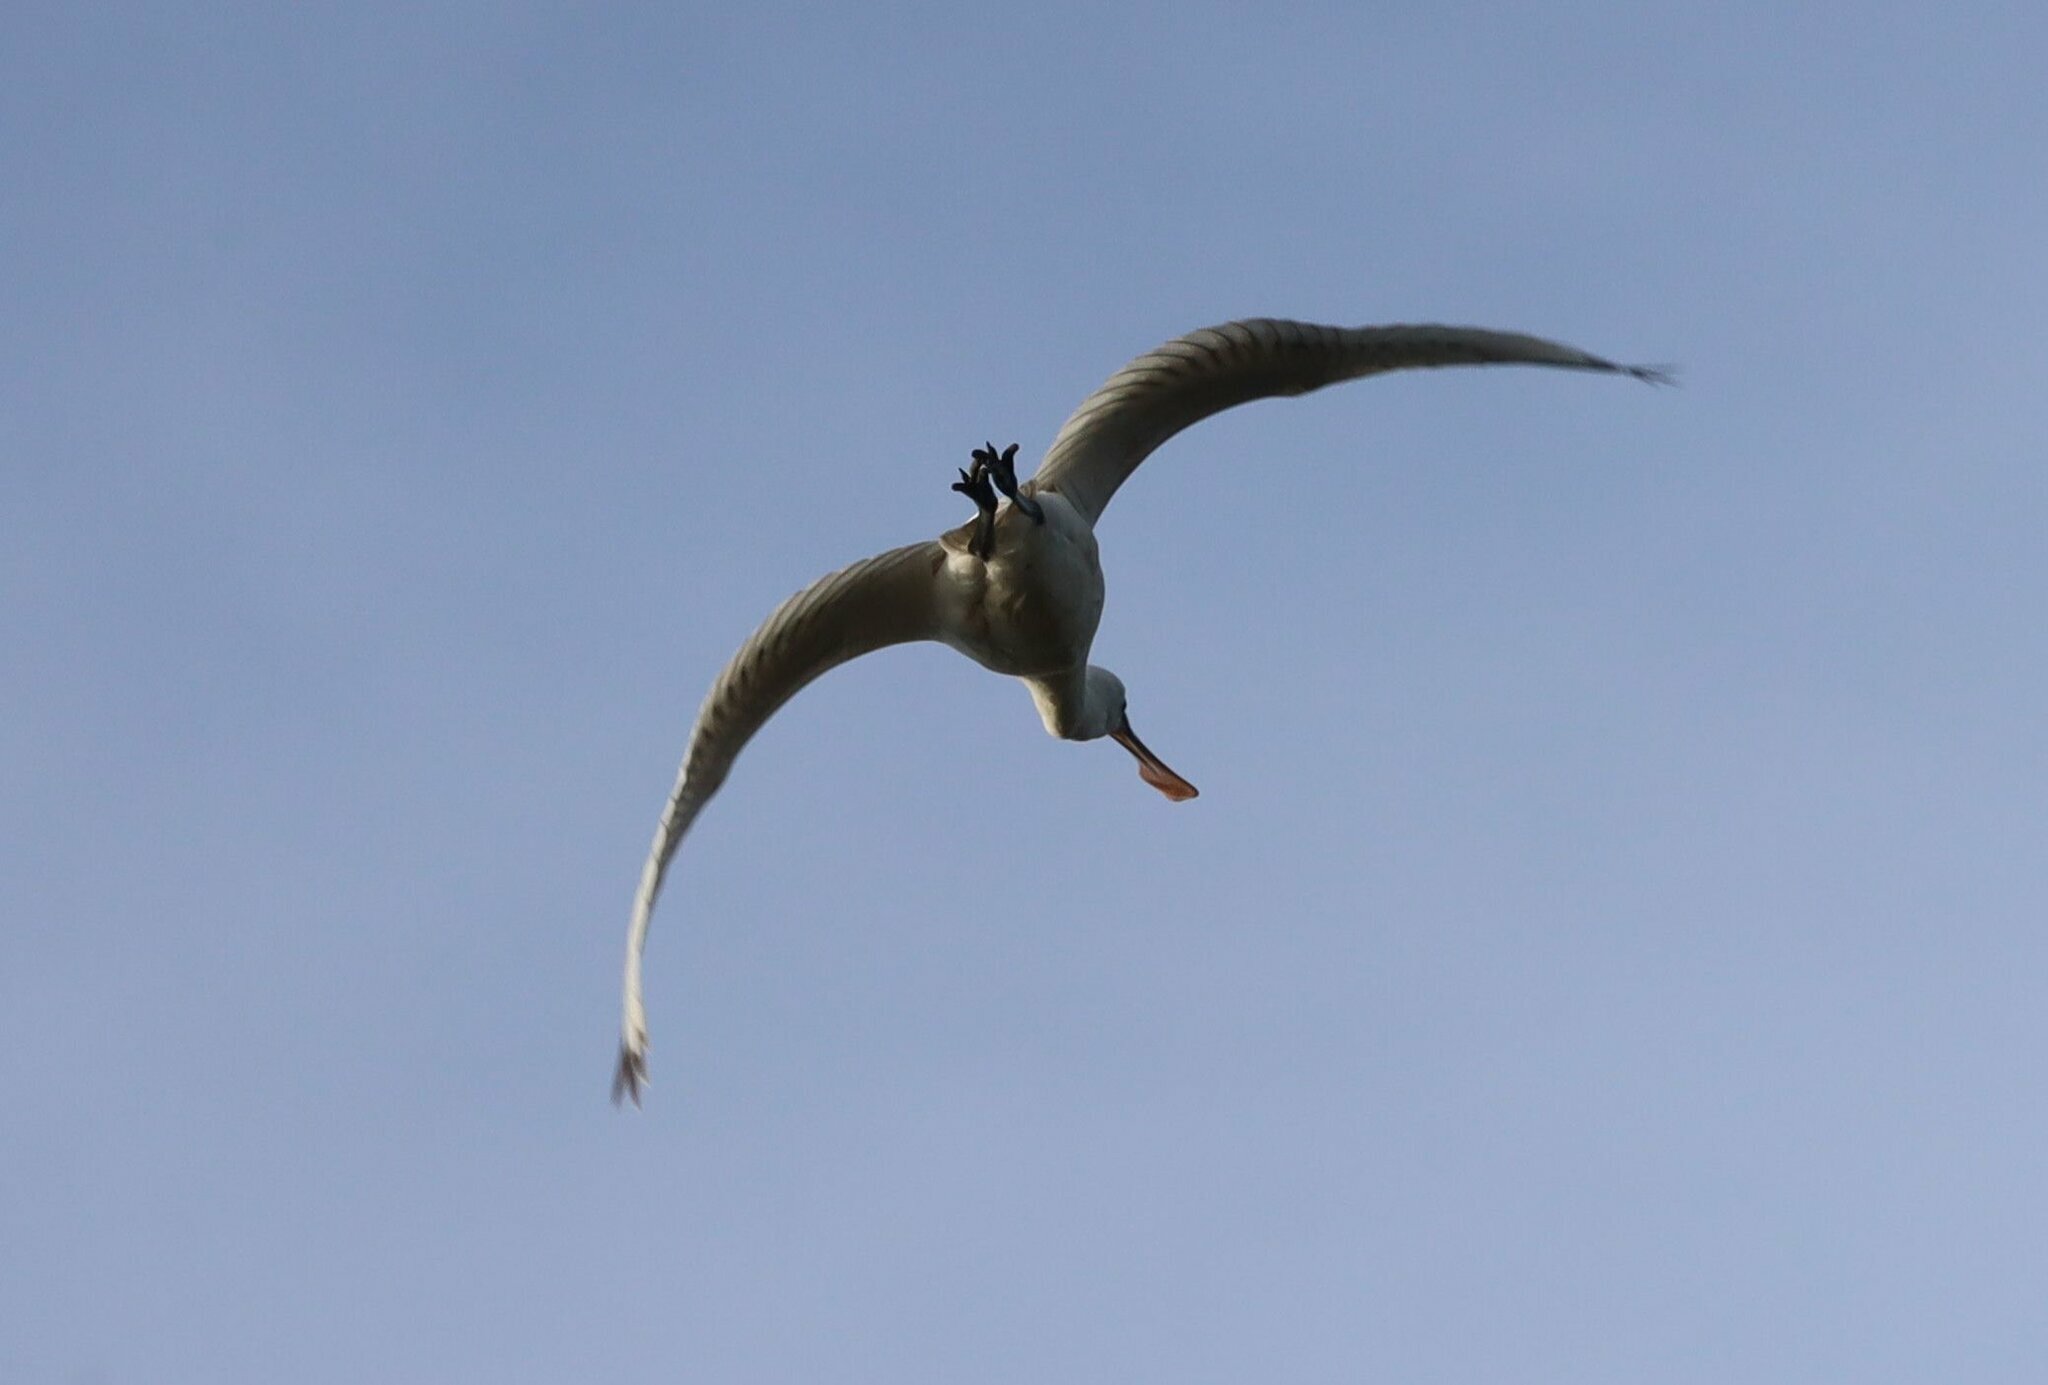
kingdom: Animalia
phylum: Chordata
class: Aves
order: Pelecaniformes
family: Threskiornithidae
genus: Platalea
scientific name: Platalea leucorodia
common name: Eurasian spoonbill
